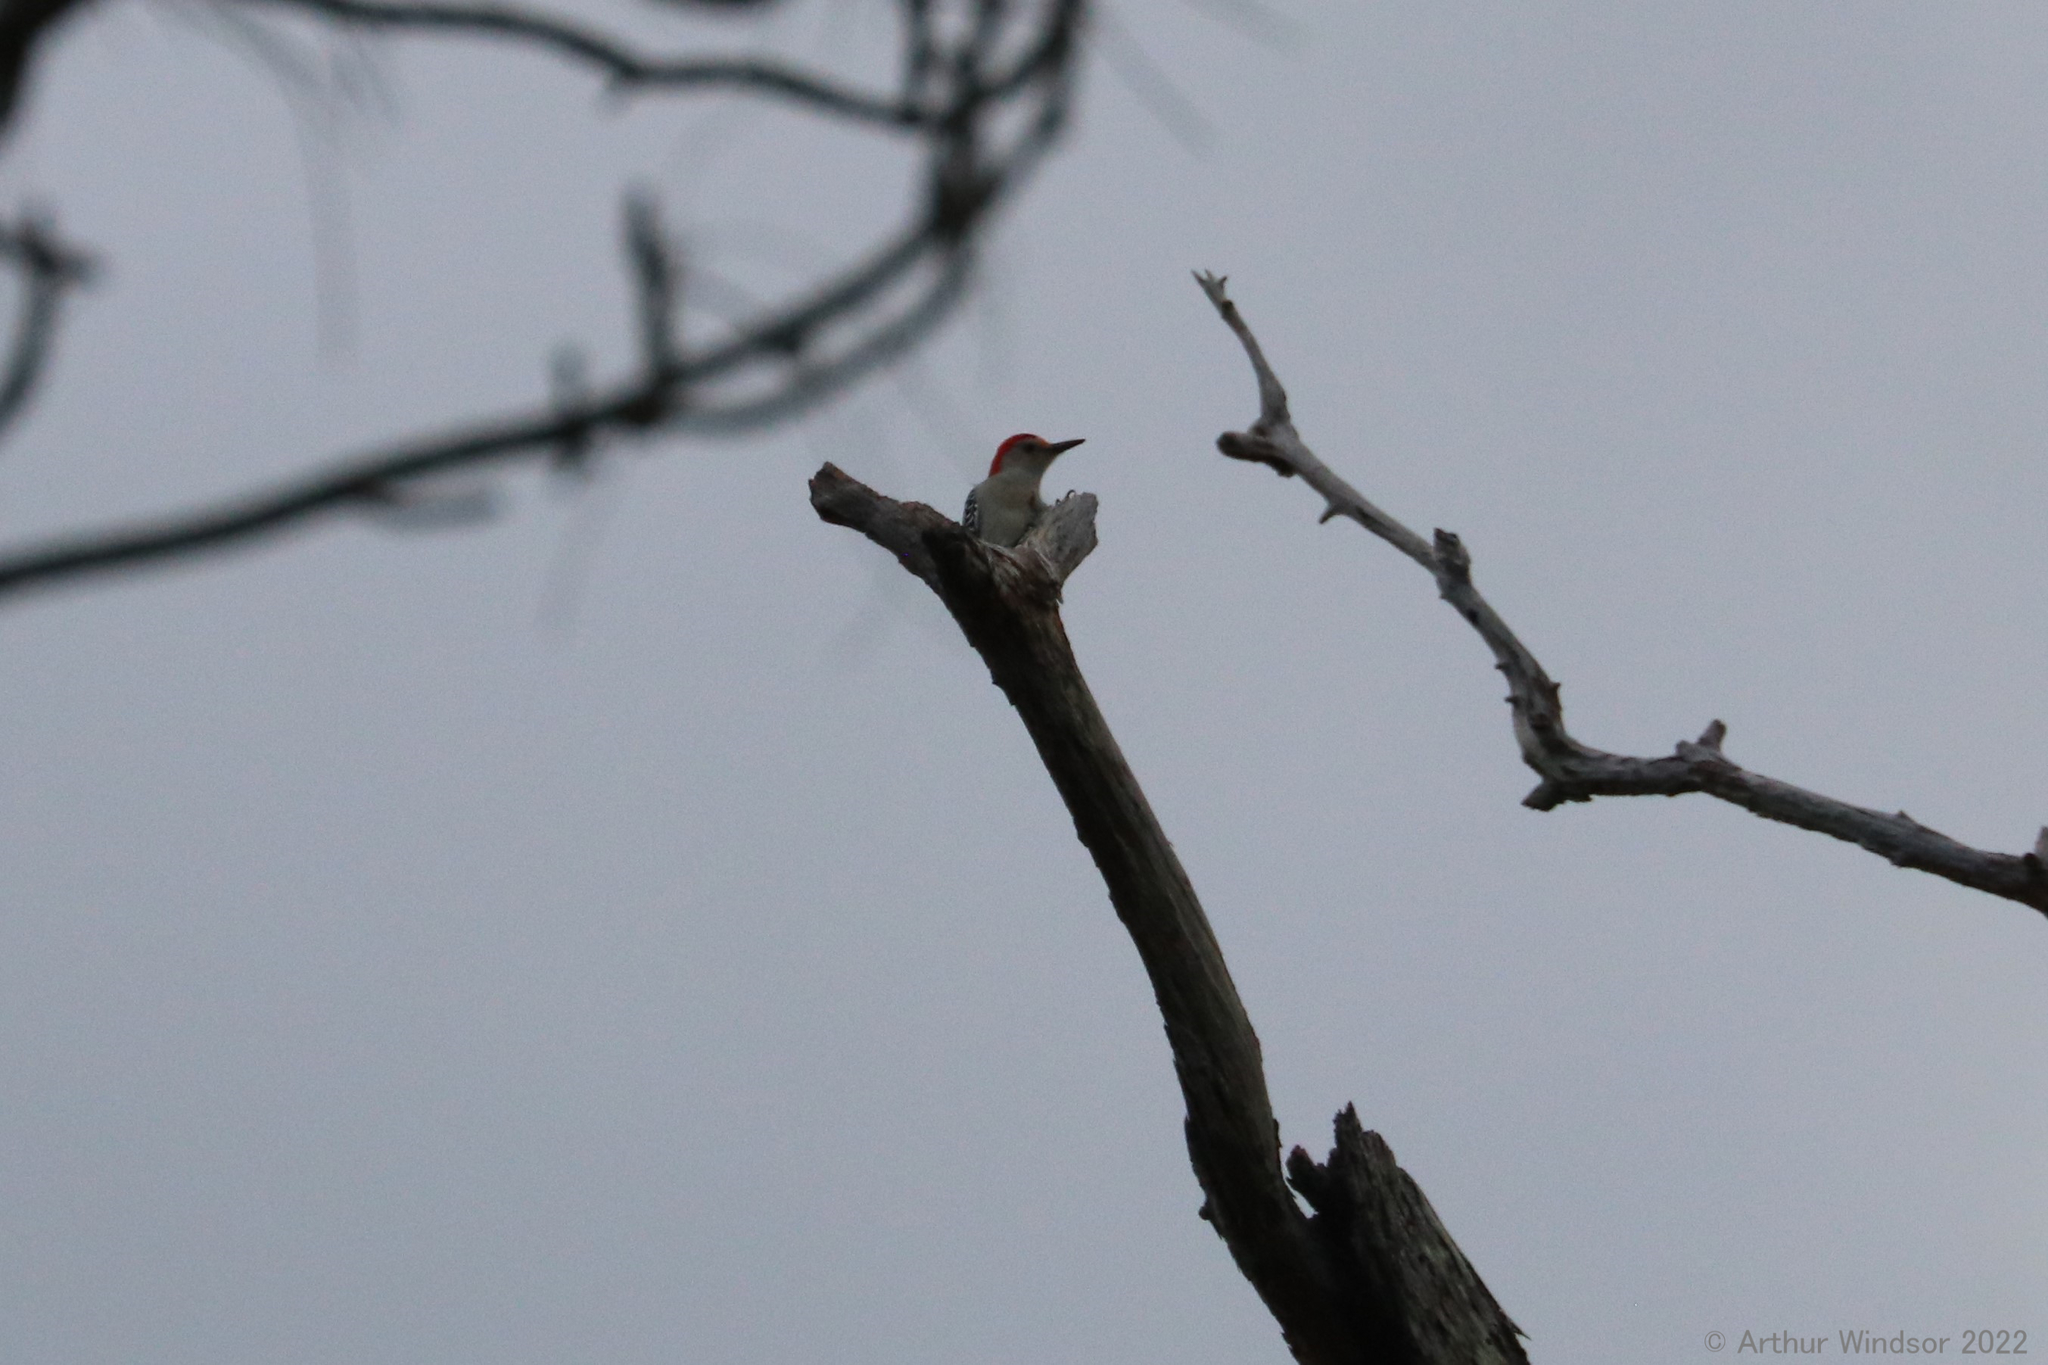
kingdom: Animalia
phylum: Chordata
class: Aves
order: Piciformes
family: Picidae
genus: Melanerpes
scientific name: Melanerpes carolinus
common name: Red-bellied woodpecker
